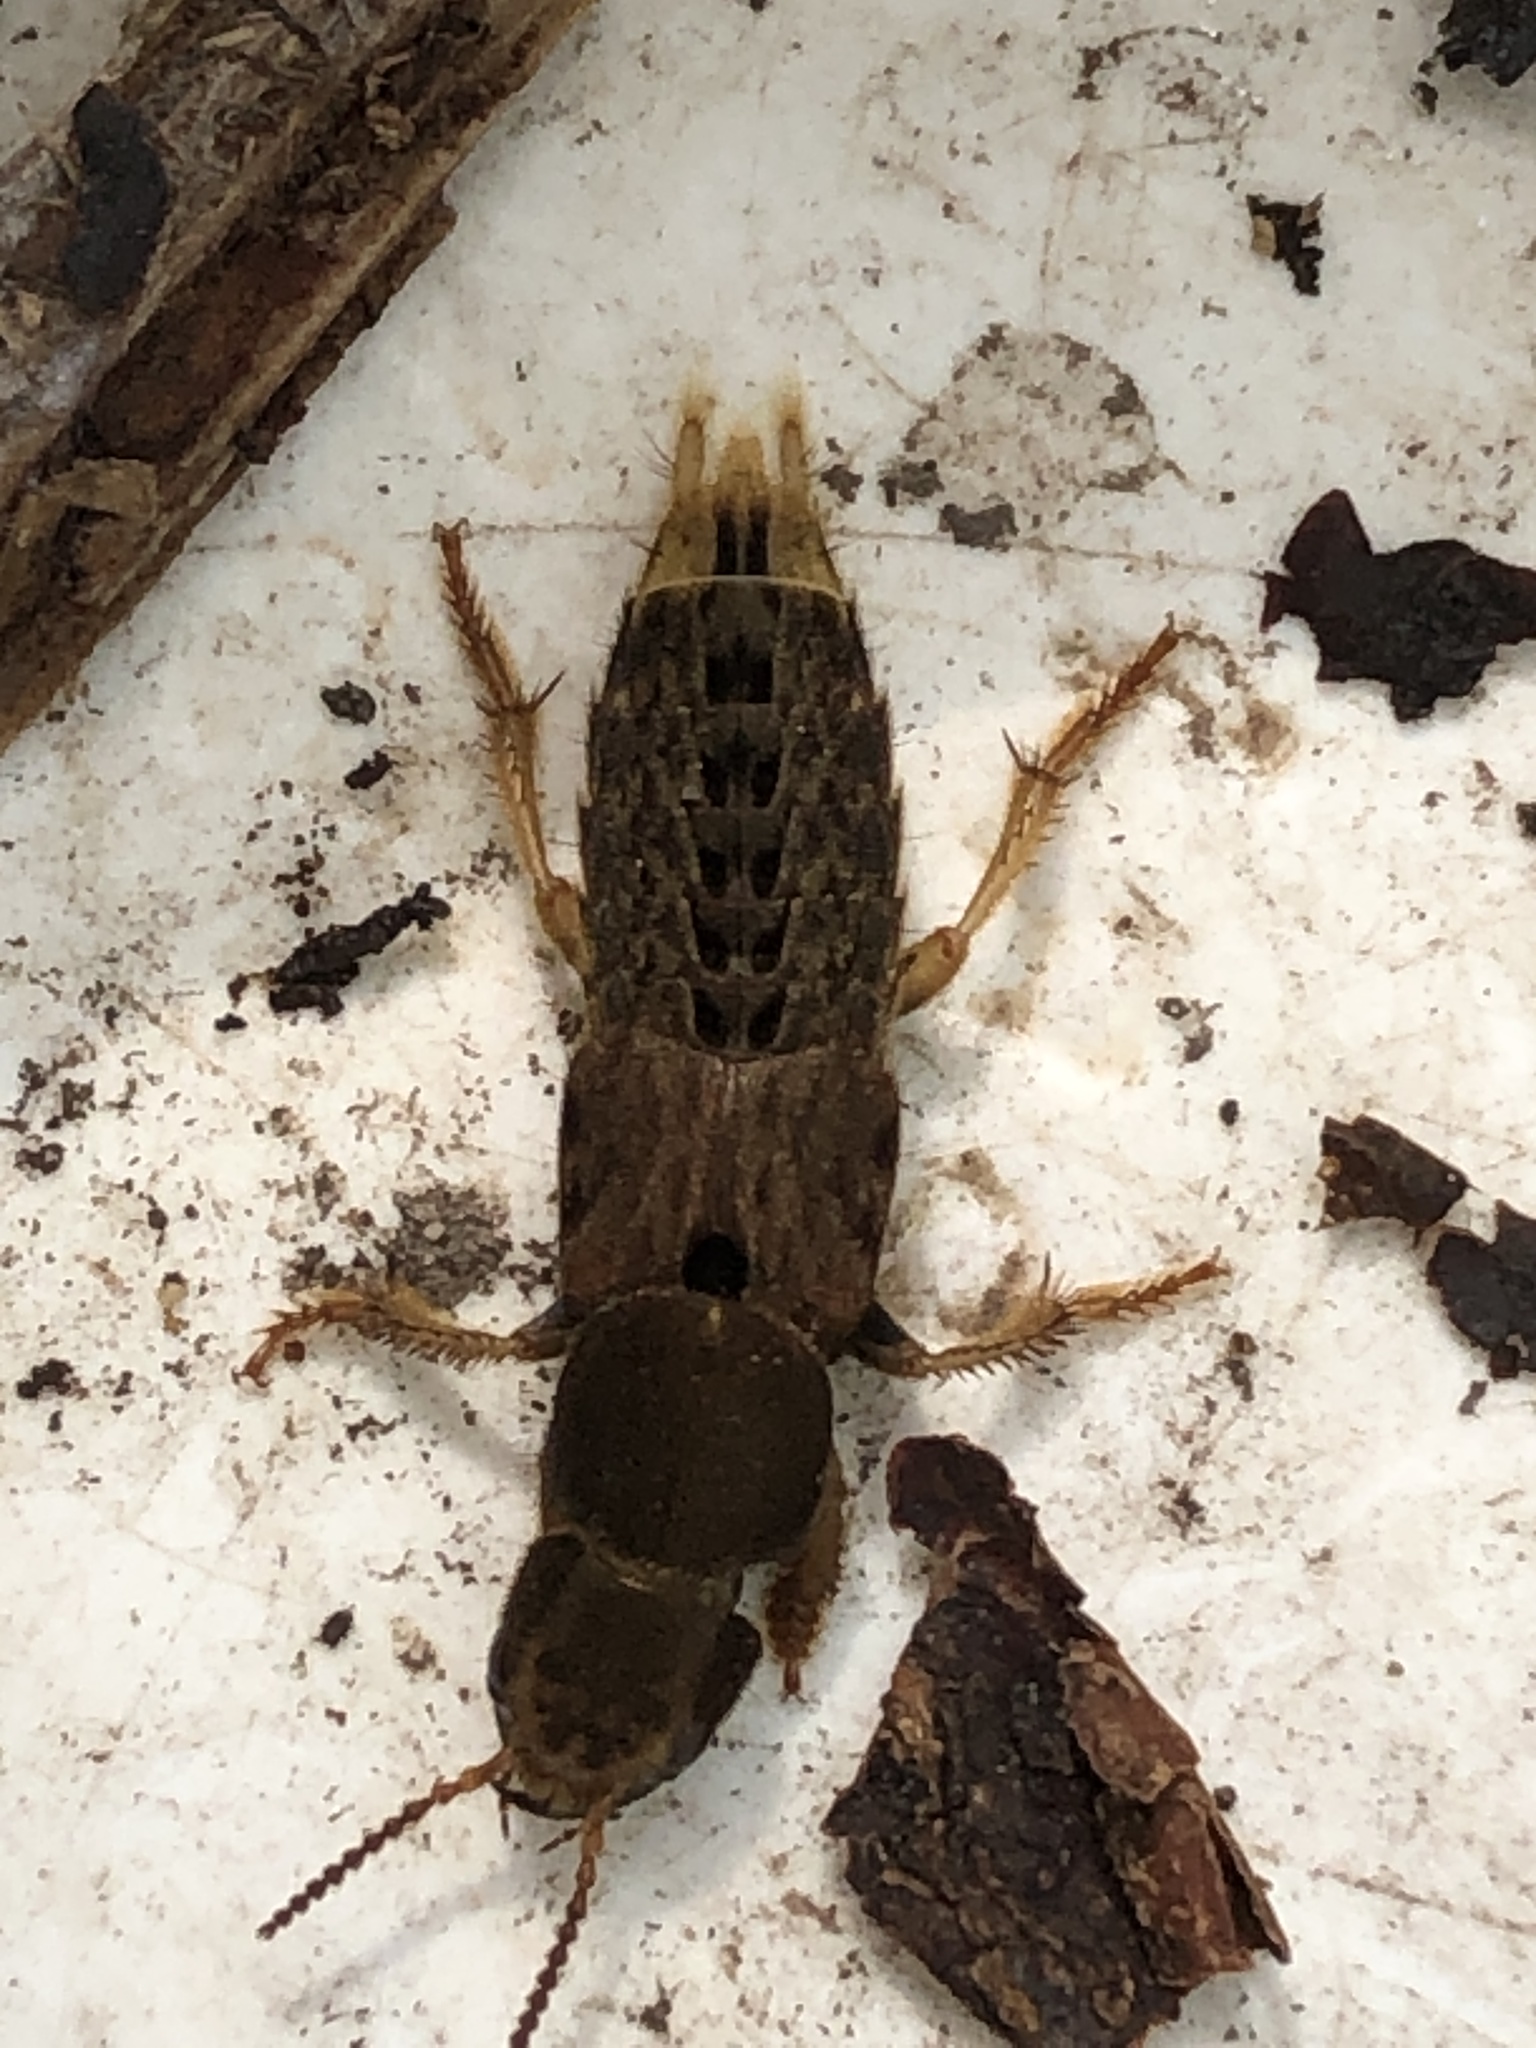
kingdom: Animalia
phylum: Arthropoda
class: Insecta
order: Coleoptera
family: Staphylinidae
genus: Platydracus
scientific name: Platydracus maculosus
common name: Brown rove beetle
